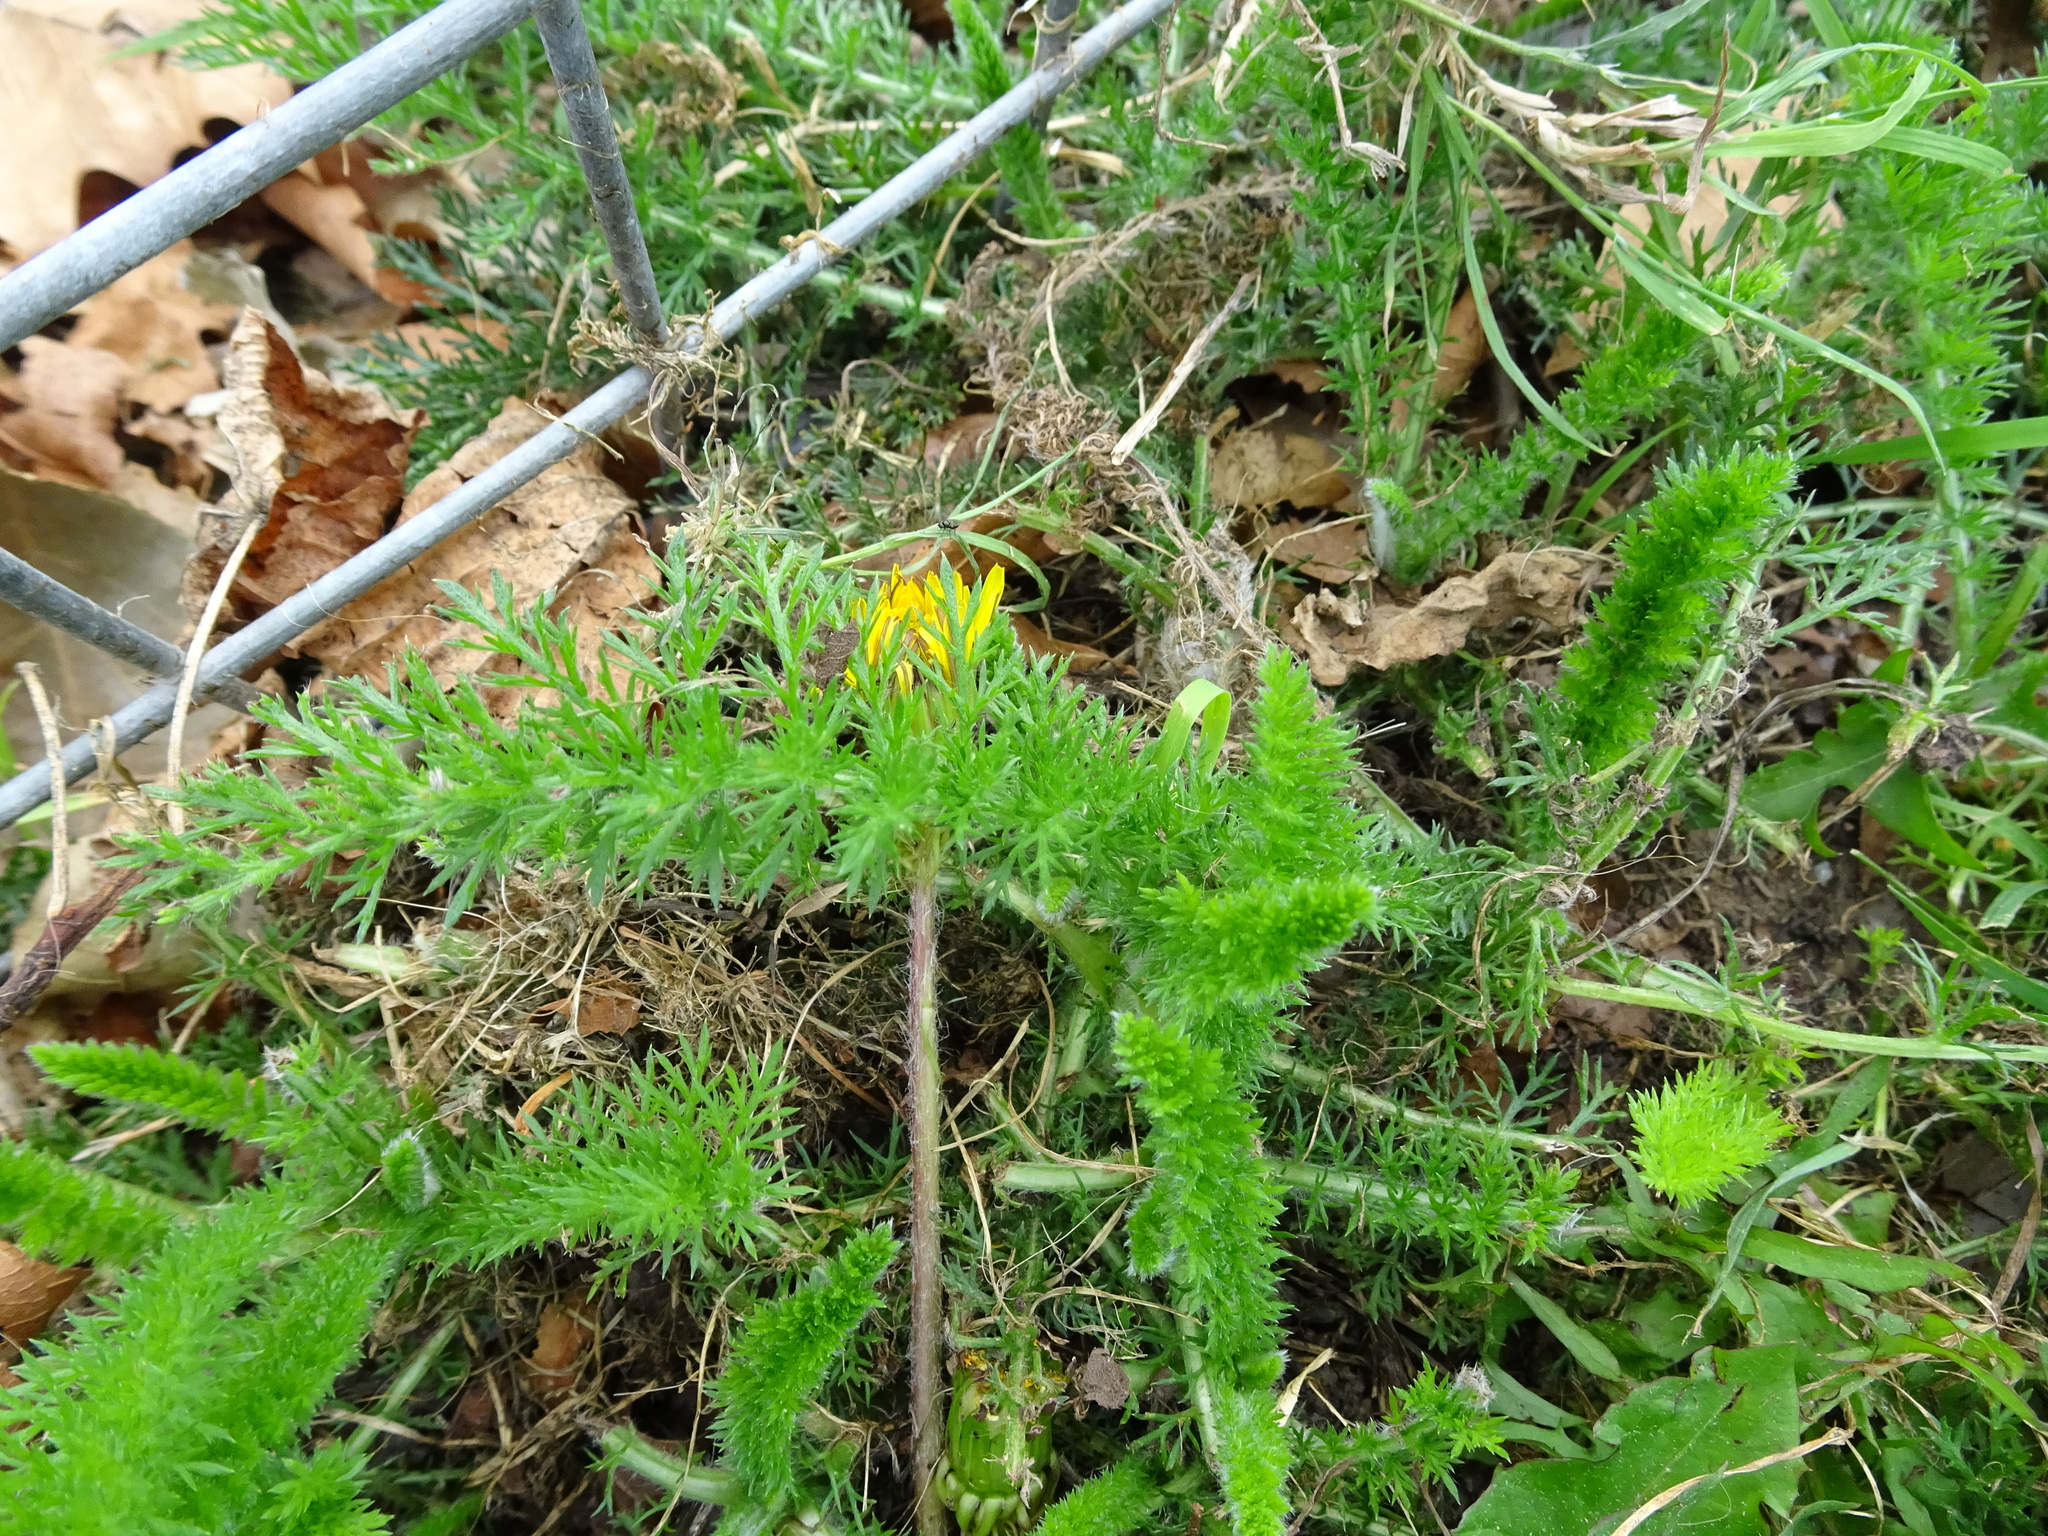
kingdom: Plantae
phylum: Tracheophyta
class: Magnoliopsida
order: Asterales
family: Asteraceae
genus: Achillea
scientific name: Achillea millefolium
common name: Yarrow
